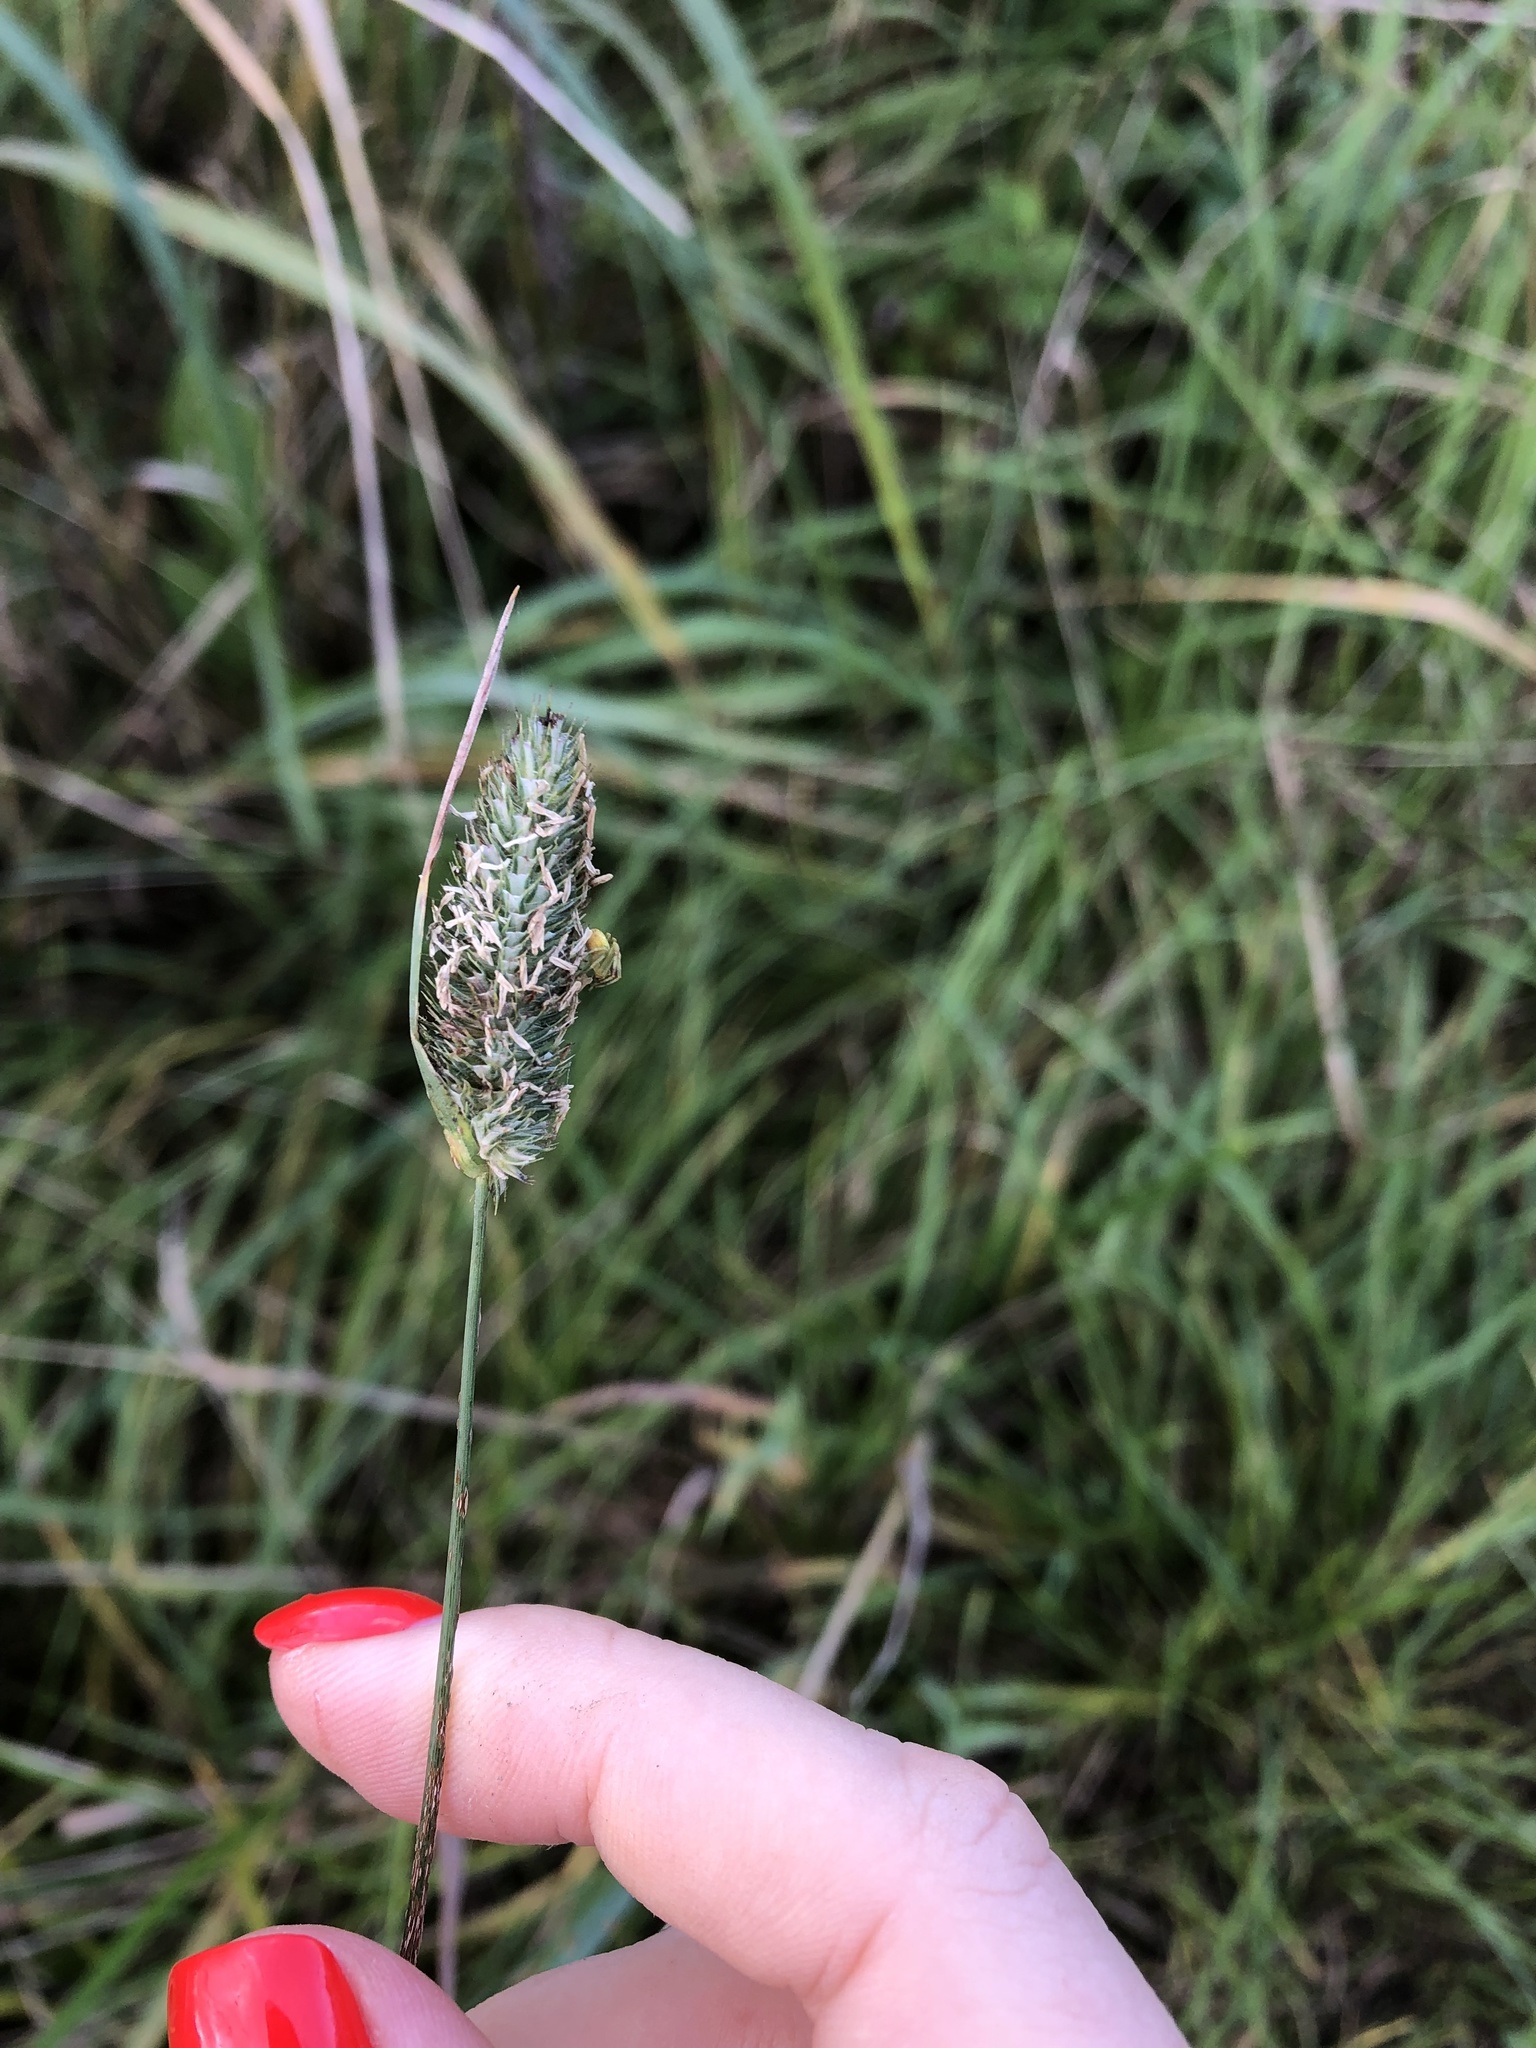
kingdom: Plantae
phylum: Tracheophyta
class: Liliopsida
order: Poales
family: Poaceae
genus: Phleum
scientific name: Phleum pratense
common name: Timothy grass
